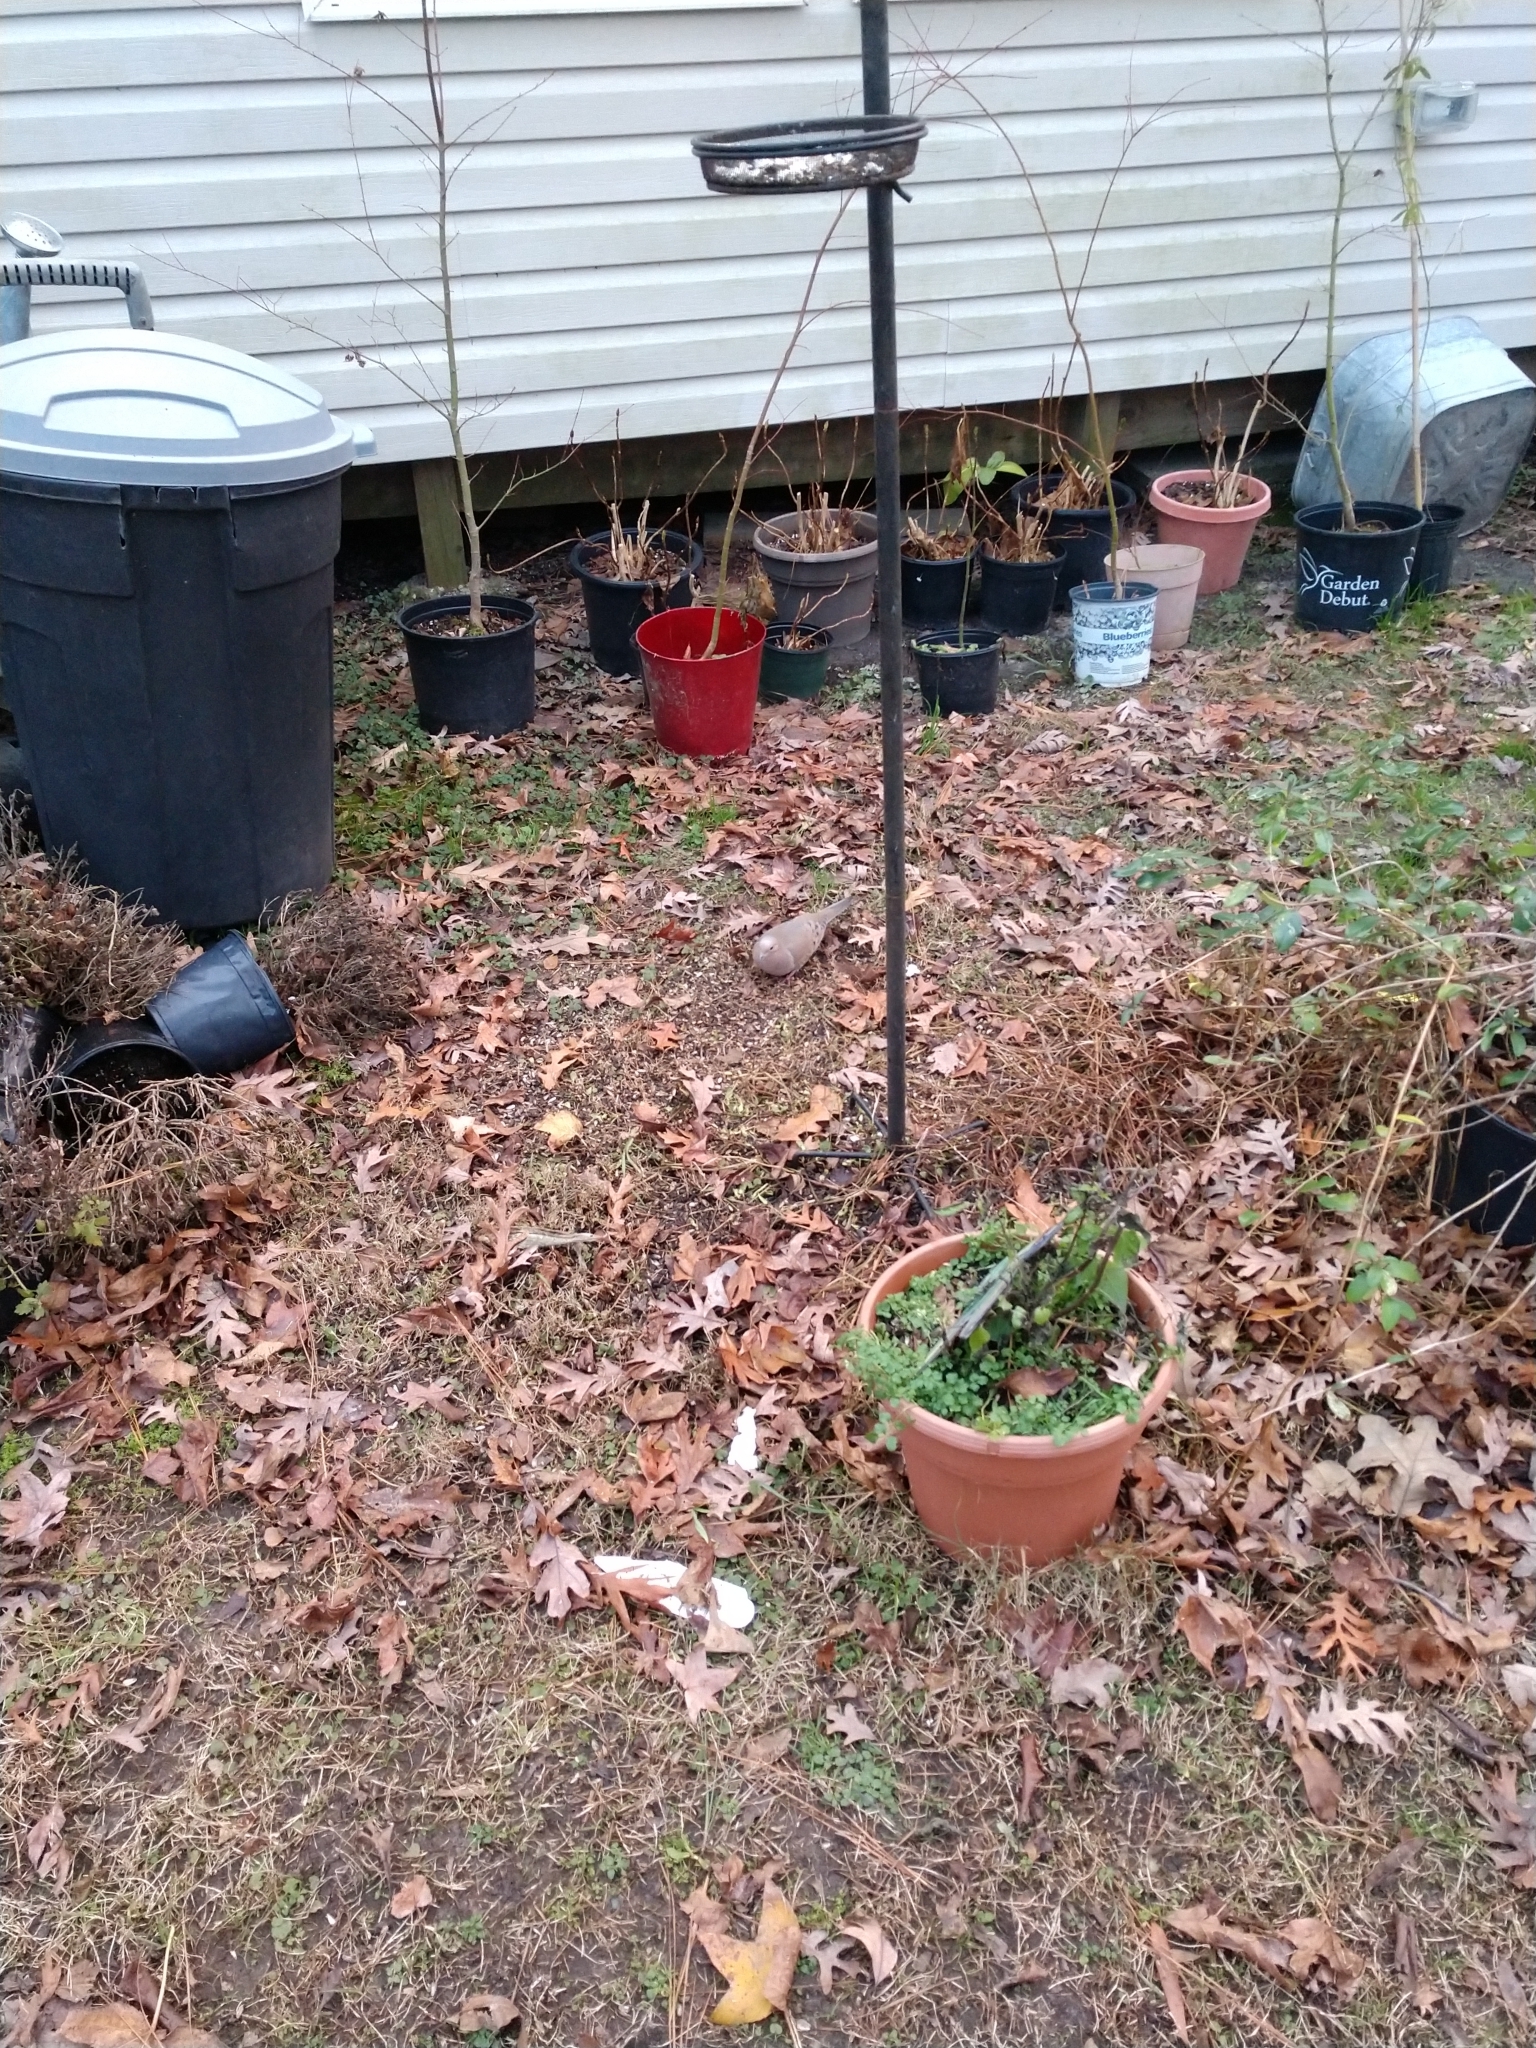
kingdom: Animalia
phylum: Chordata
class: Aves
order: Columbiformes
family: Columbidae
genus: Zenaida
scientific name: Zenaida macroura
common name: Mourning dove
